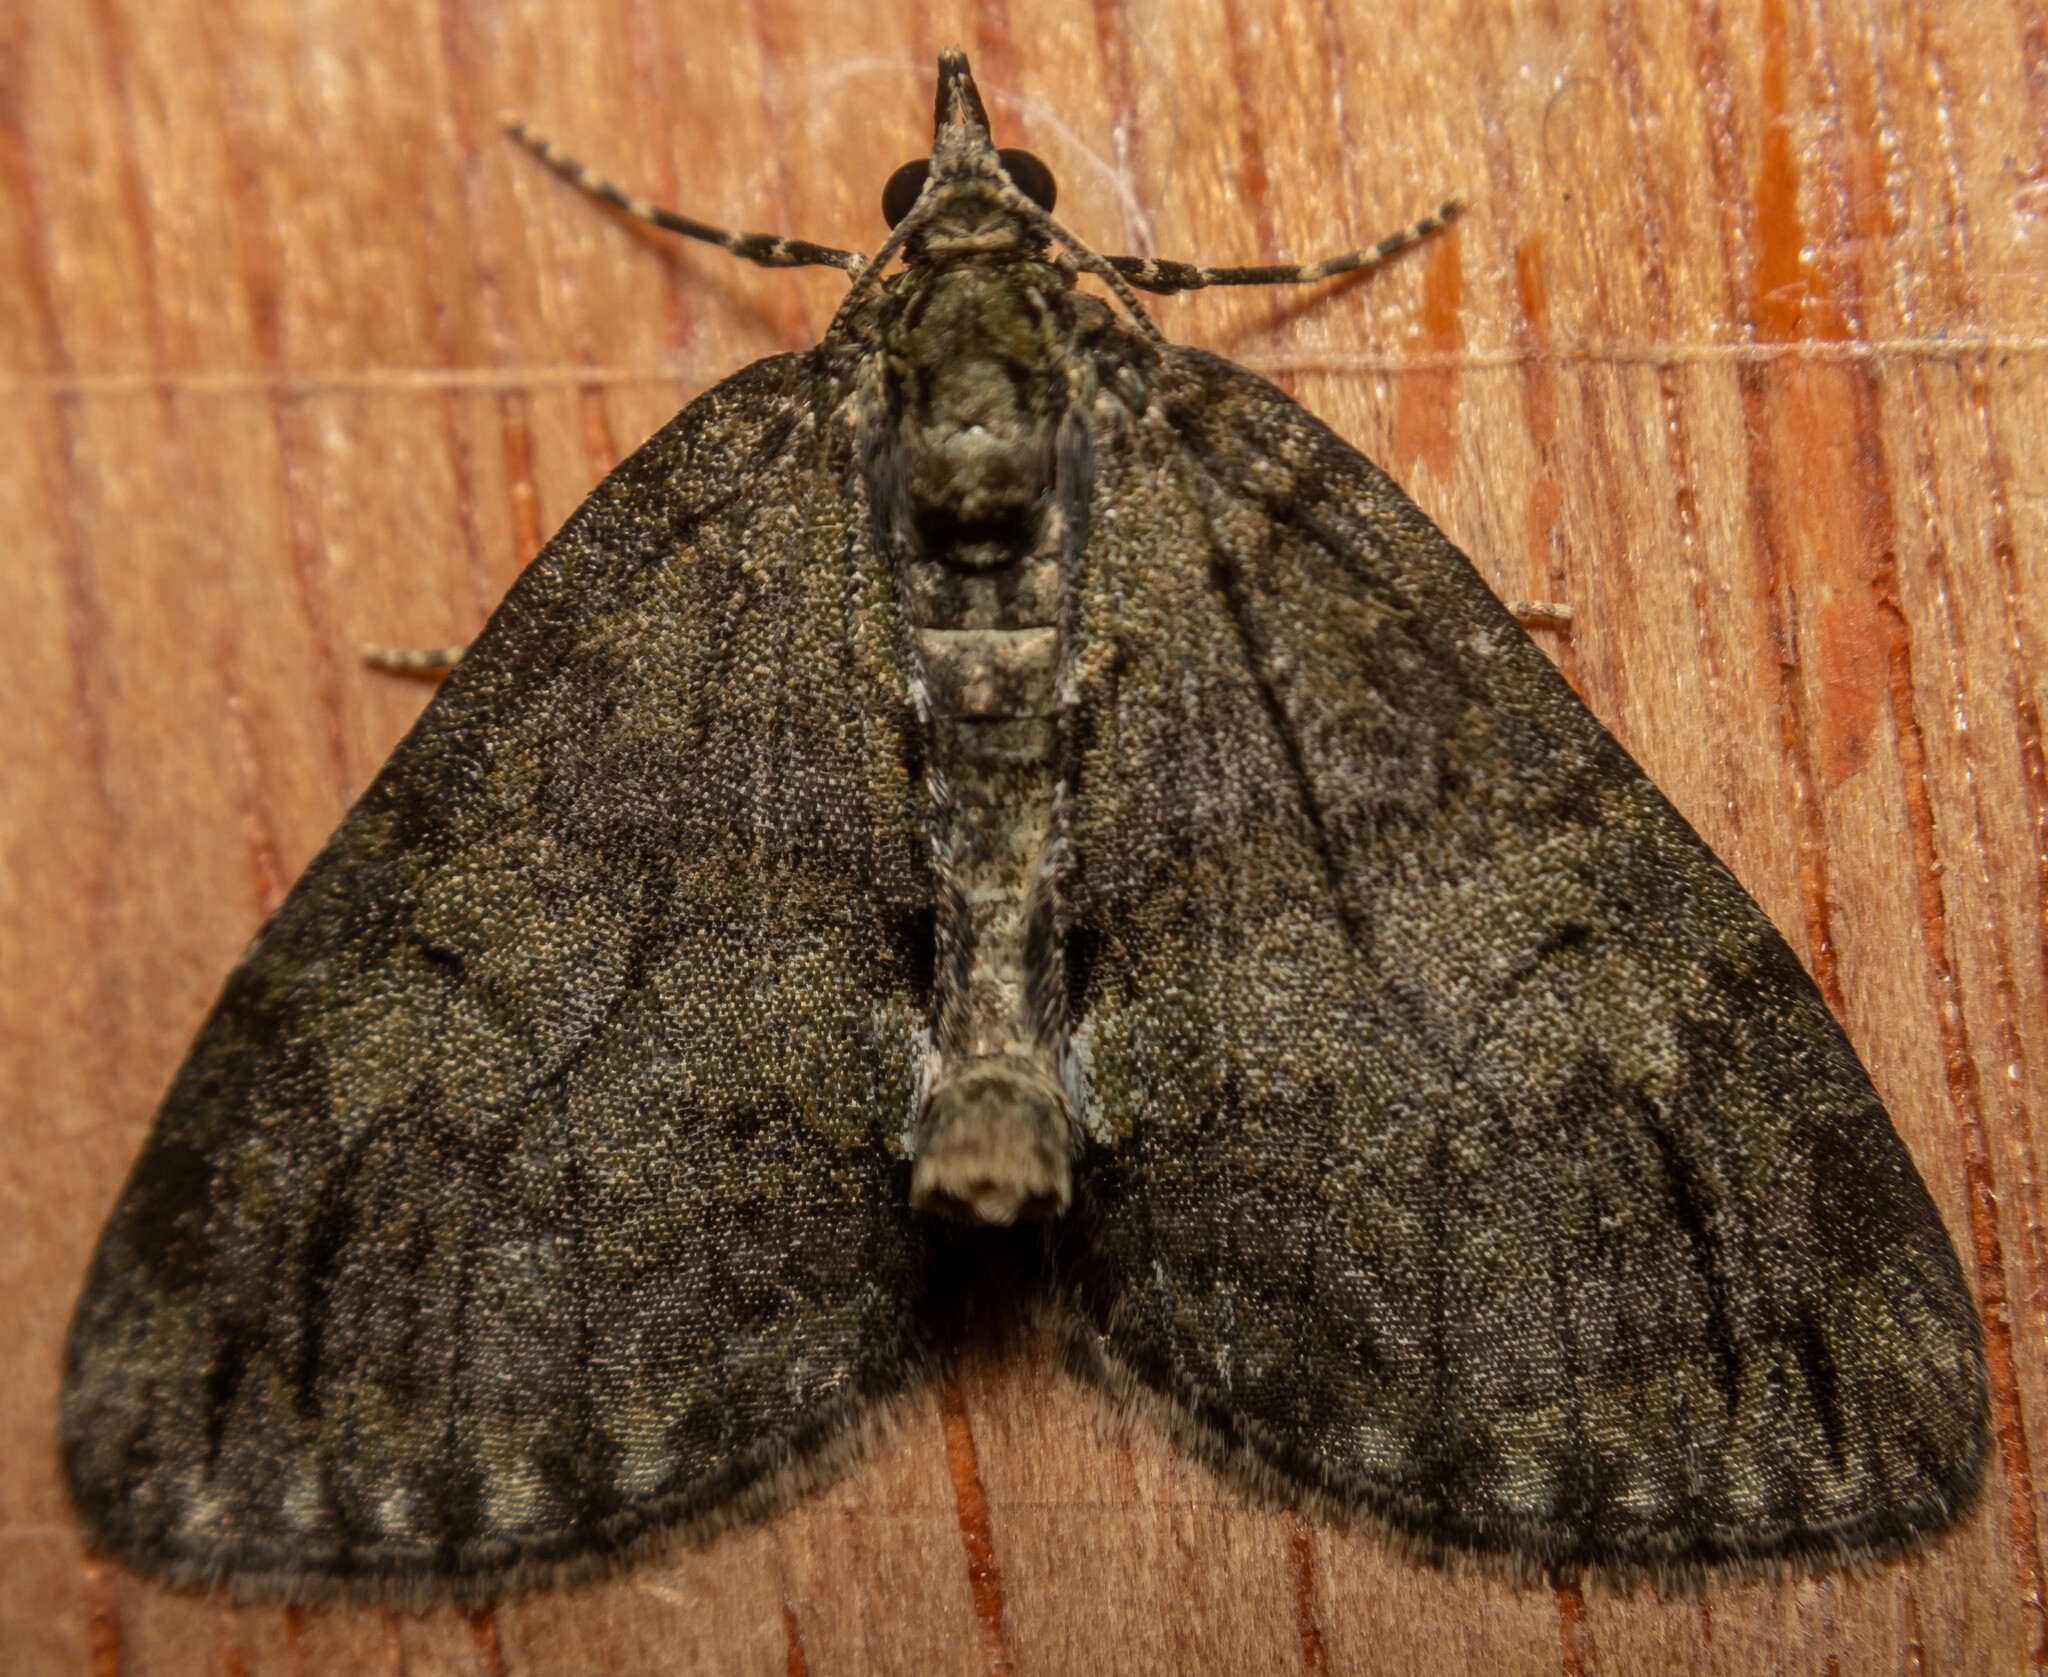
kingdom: Animalia
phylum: Arthropoda
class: Insecta
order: Lepidoptera
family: Geometridae
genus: Hydriomena
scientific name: Hydriomena impluviata
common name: May highflyer
